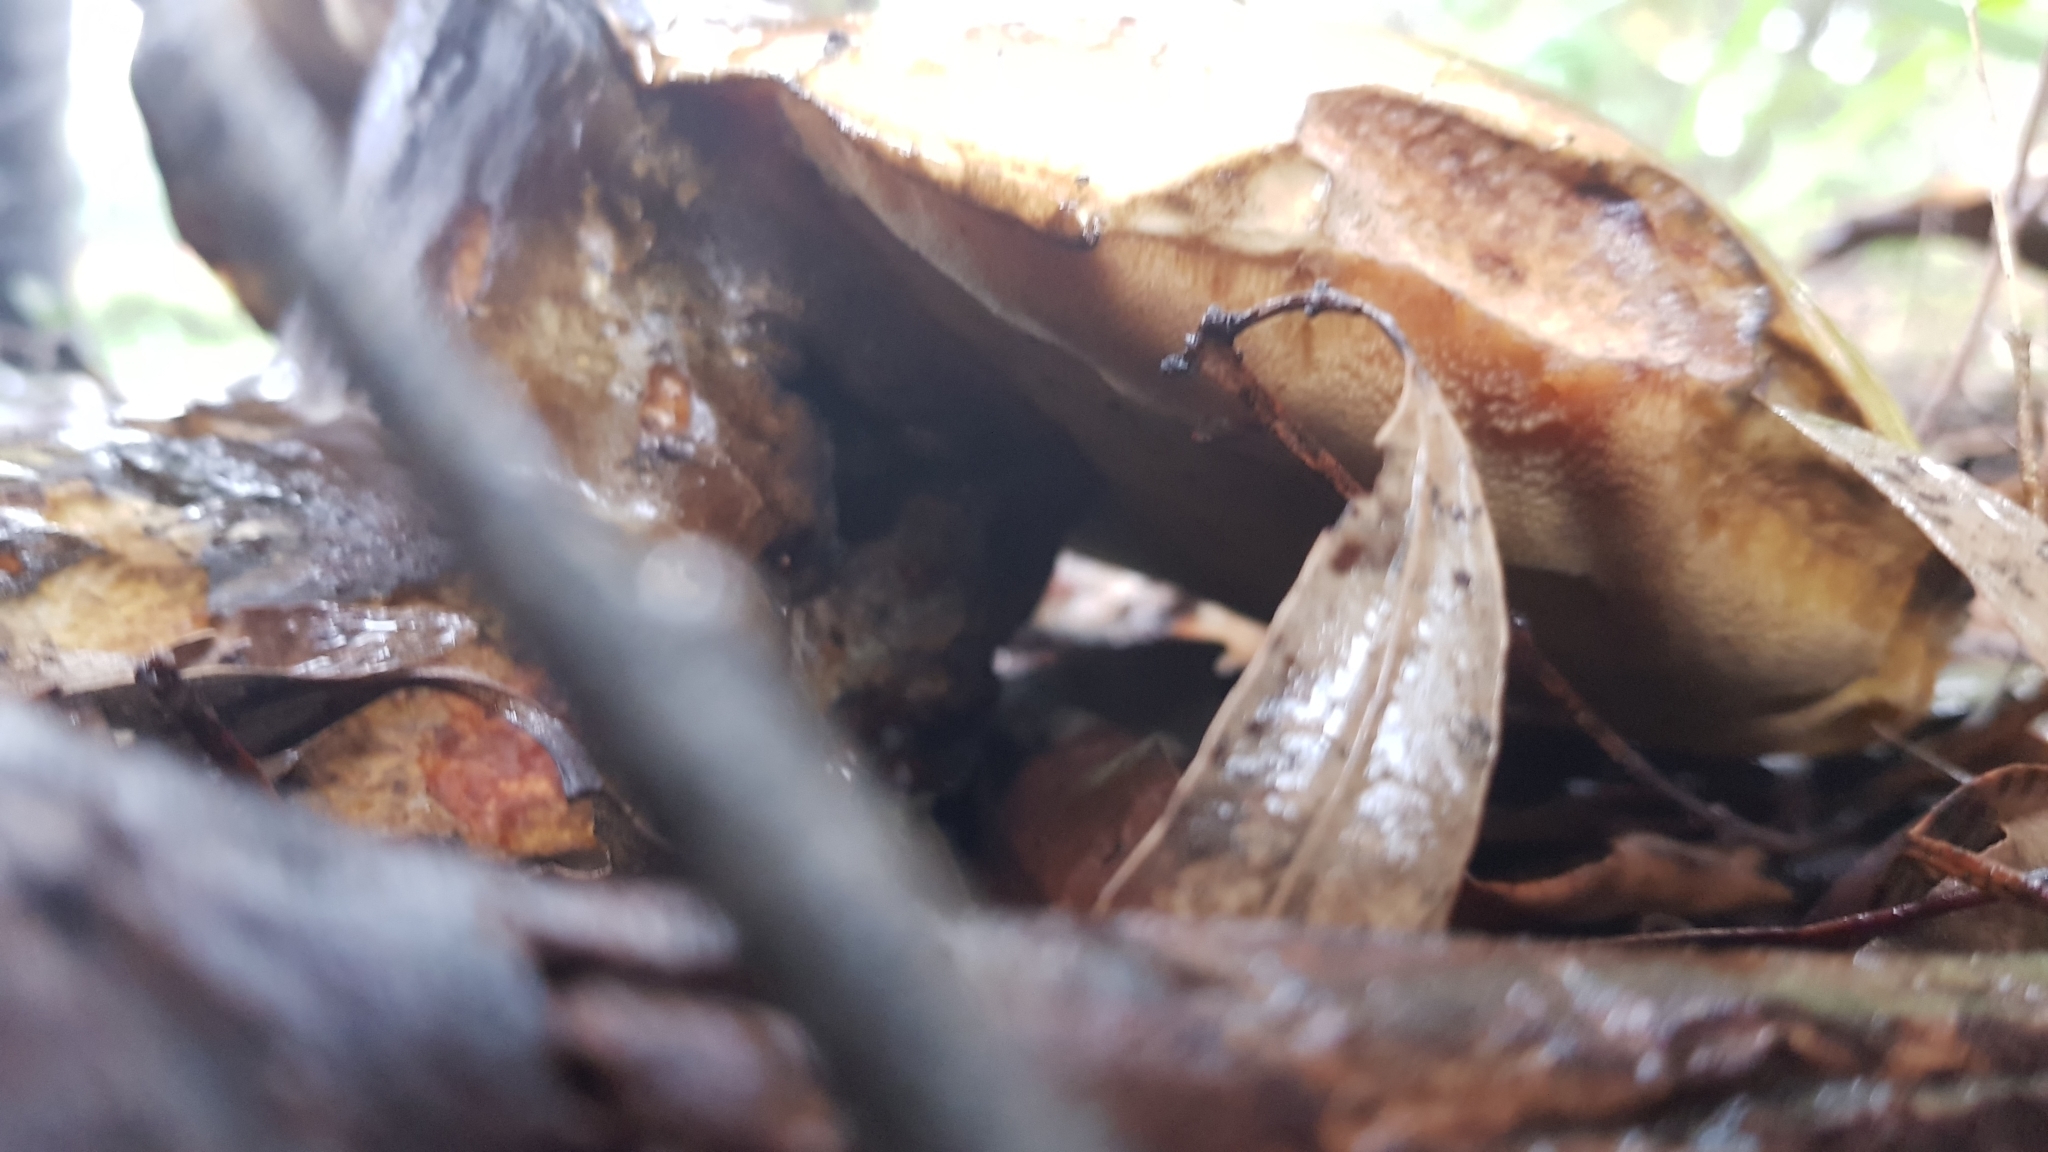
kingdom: Fungi
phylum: Basidiomycota
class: Agaricomycetes
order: Boletales
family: Boletinellaceae
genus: Phlebopus
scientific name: Phlebopus marginatus
